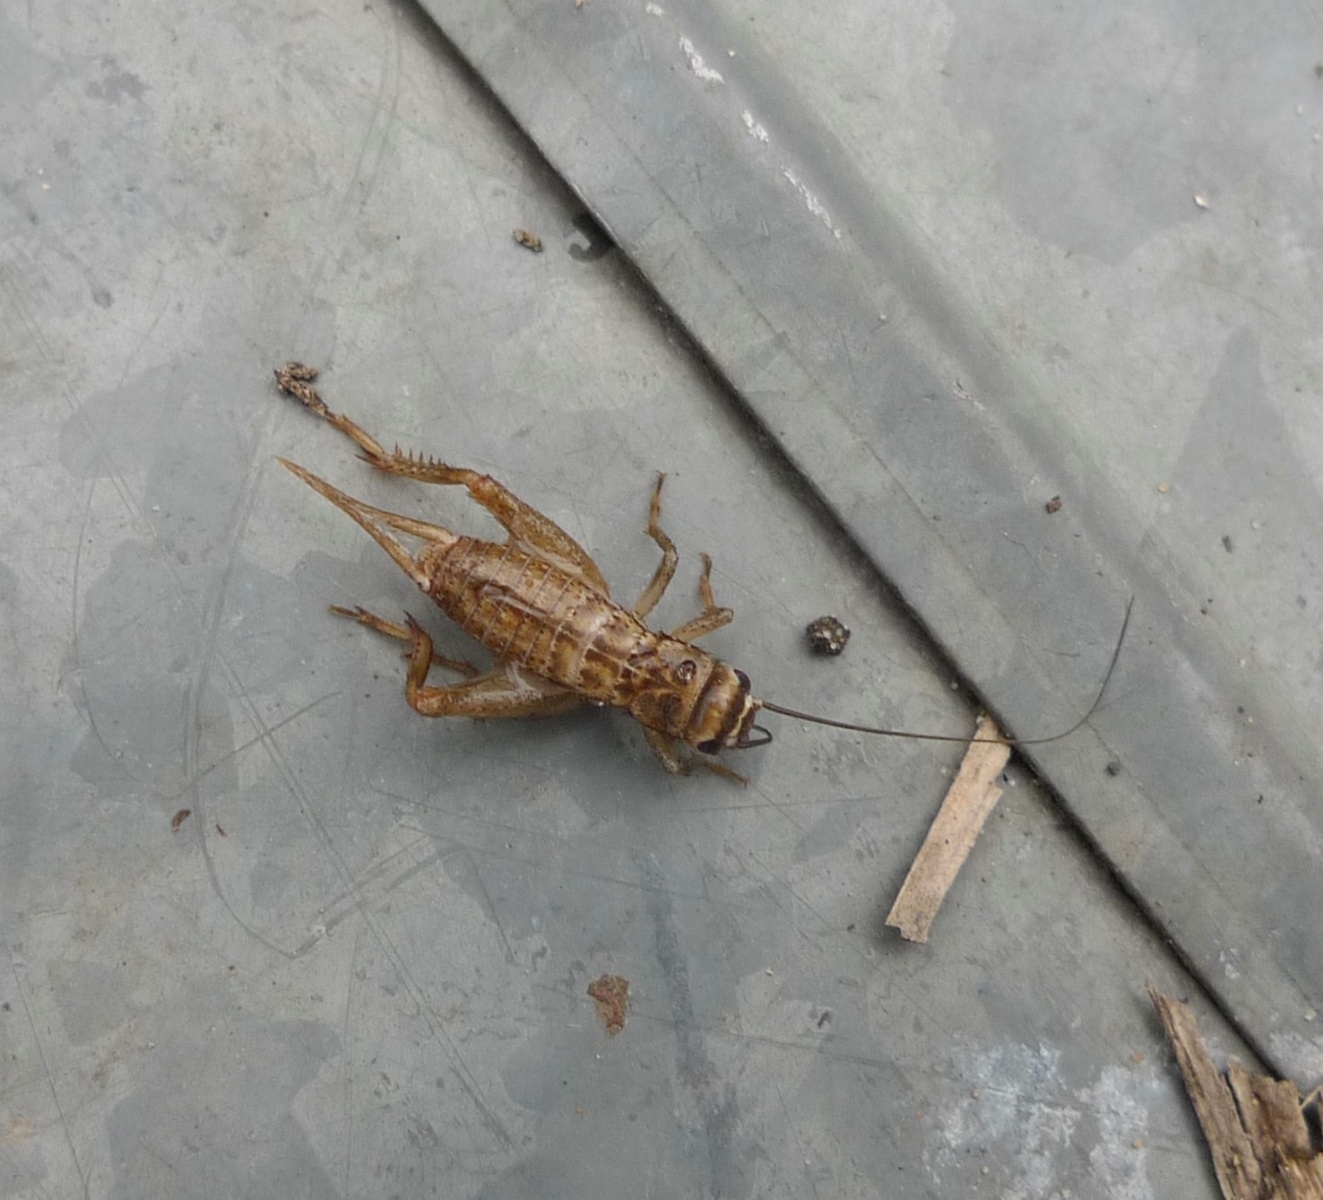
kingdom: Animalia
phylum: Arthropoda
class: Insecta
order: Orthoptera
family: Gryllidae
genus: Acheta
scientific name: Acheta domesticus
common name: House cricket
